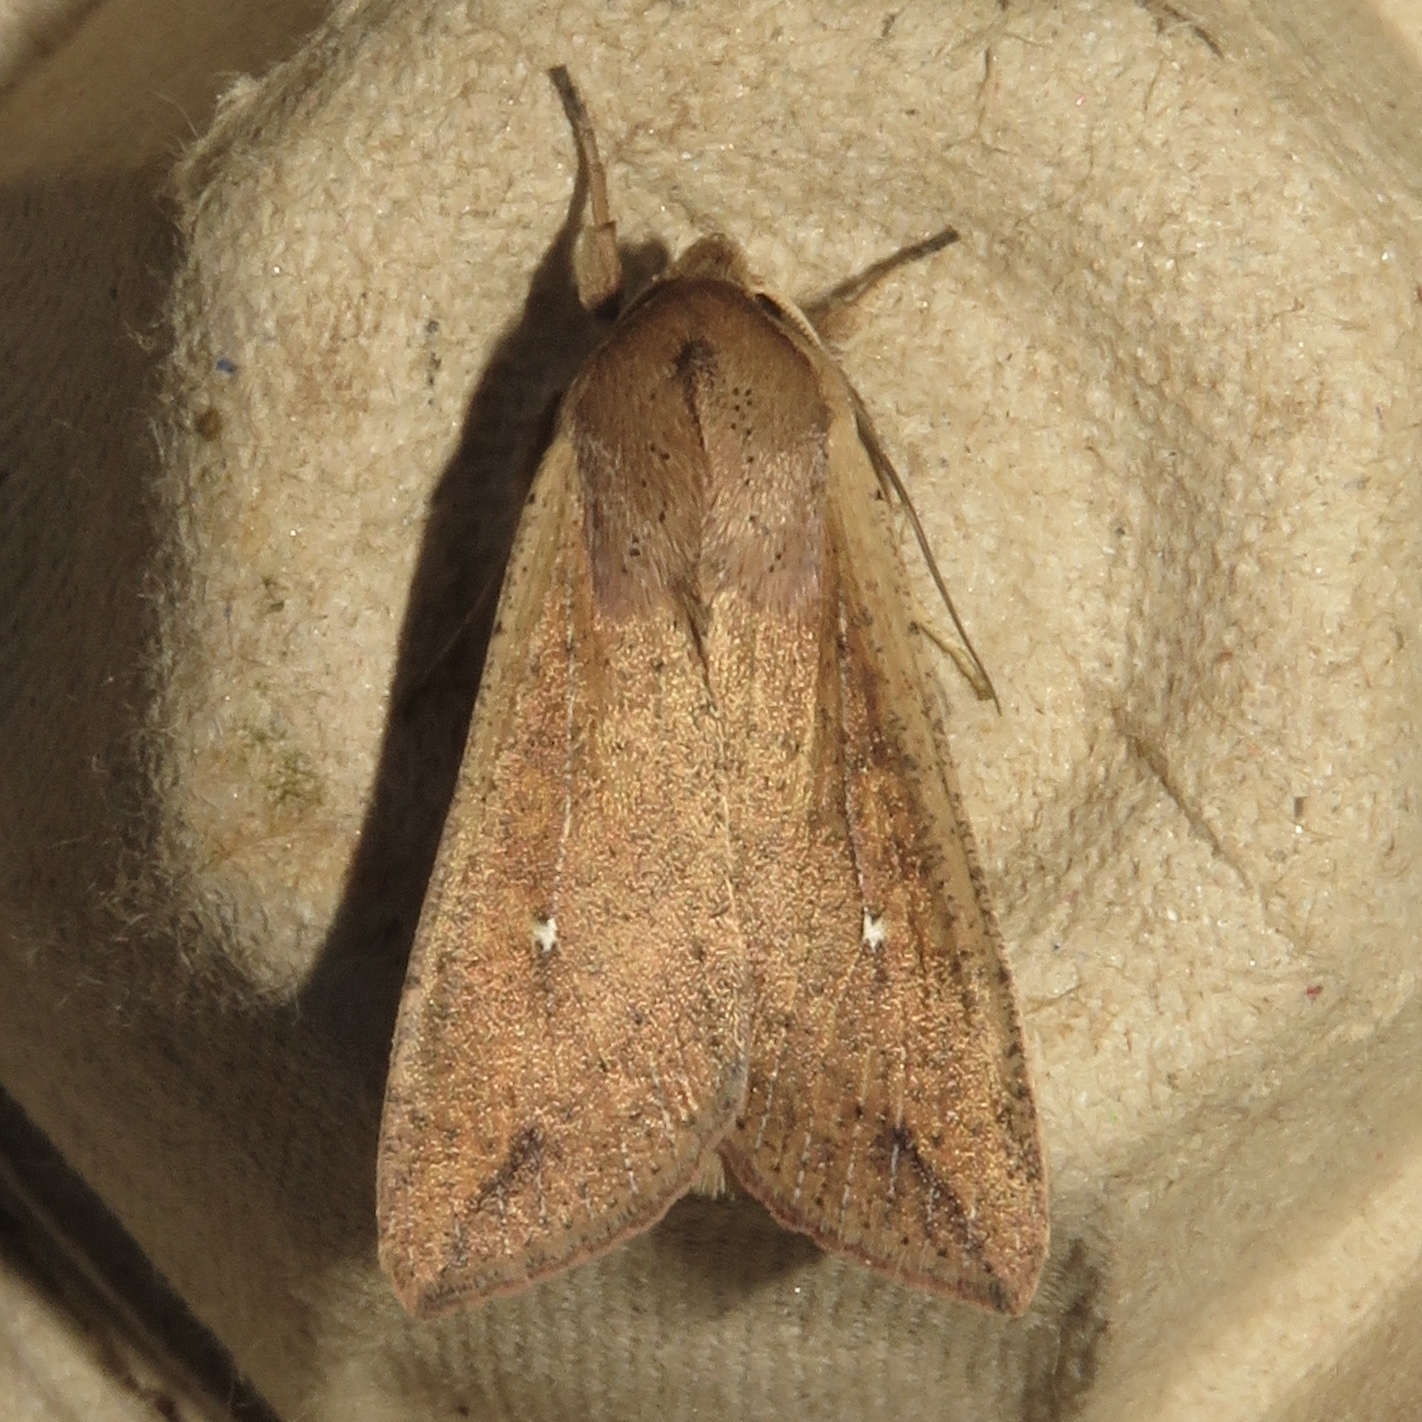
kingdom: Animalia
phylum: Arthropoda
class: Insecta
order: Lepidoptera
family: Noctuidae
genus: Mythimna
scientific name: Mythimna unipuncta
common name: White-speck
